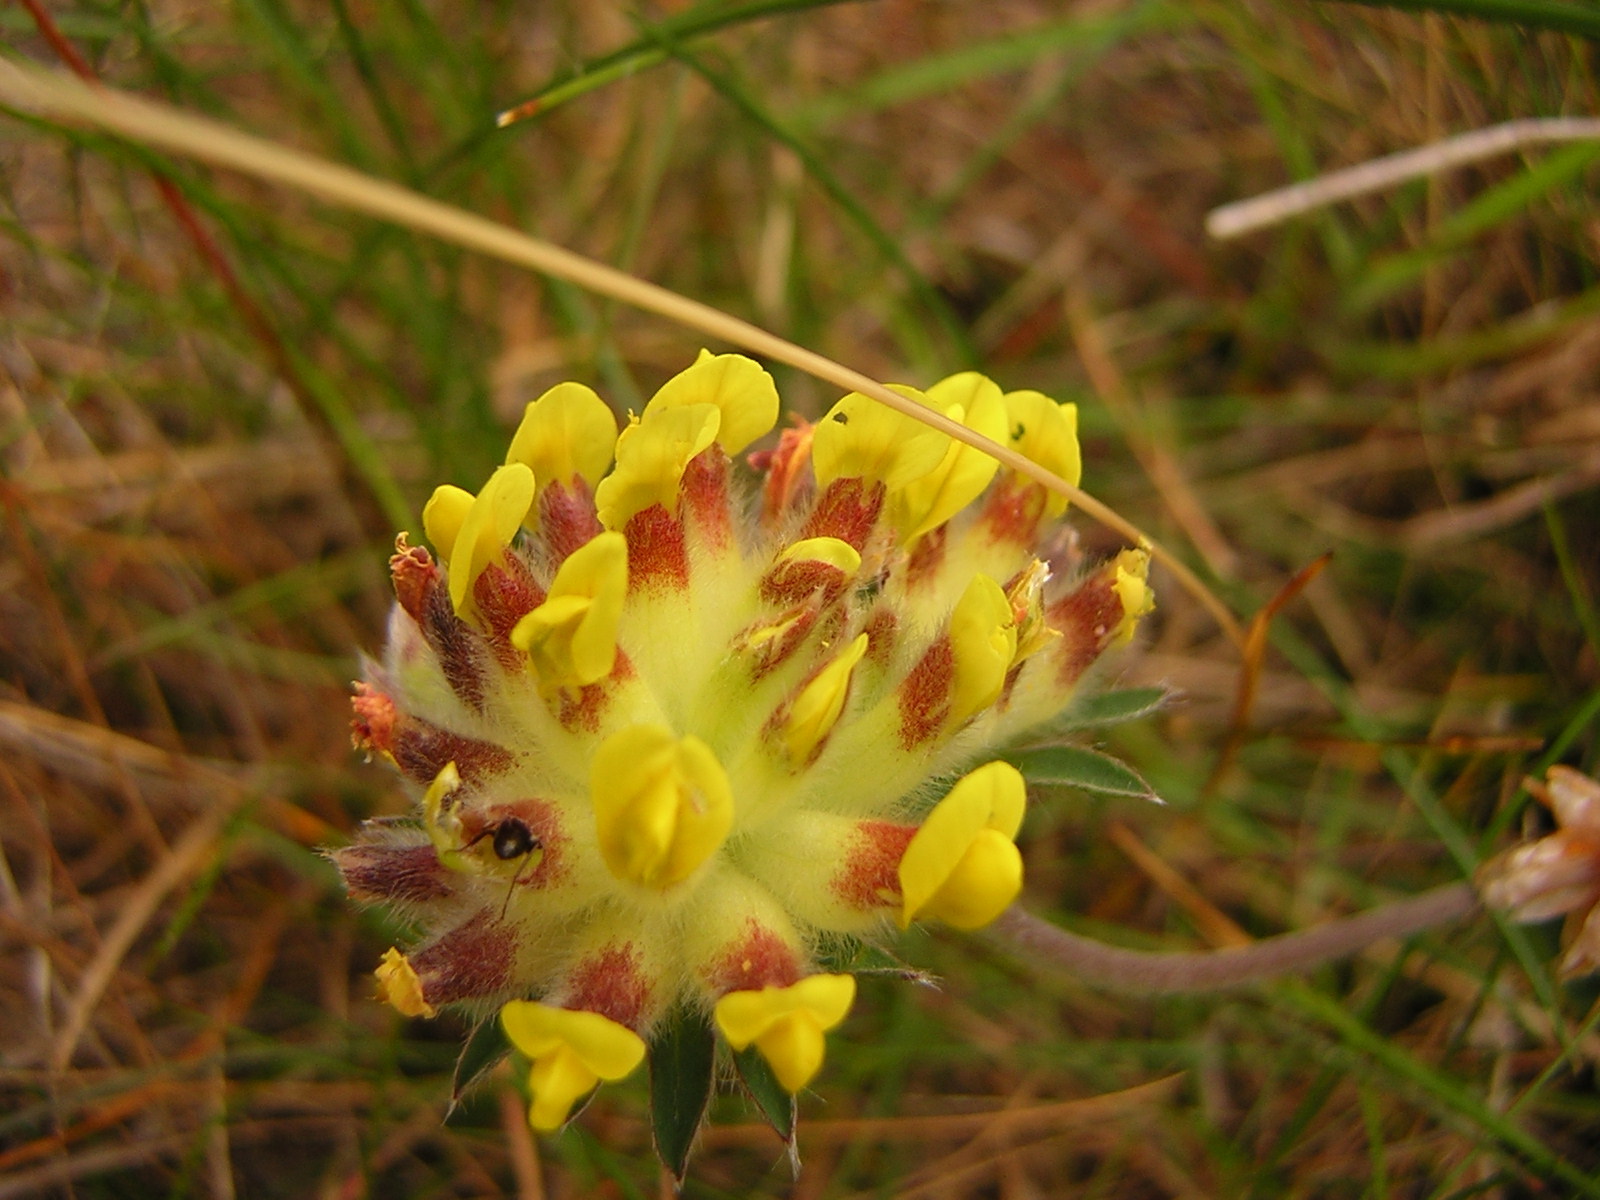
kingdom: Plantae
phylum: Tracheophyta
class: Magnoliopsida
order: Fabales
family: Fabaceae
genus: Anthyllis
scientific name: Anthyllis vulneraria
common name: Kidney vetch
